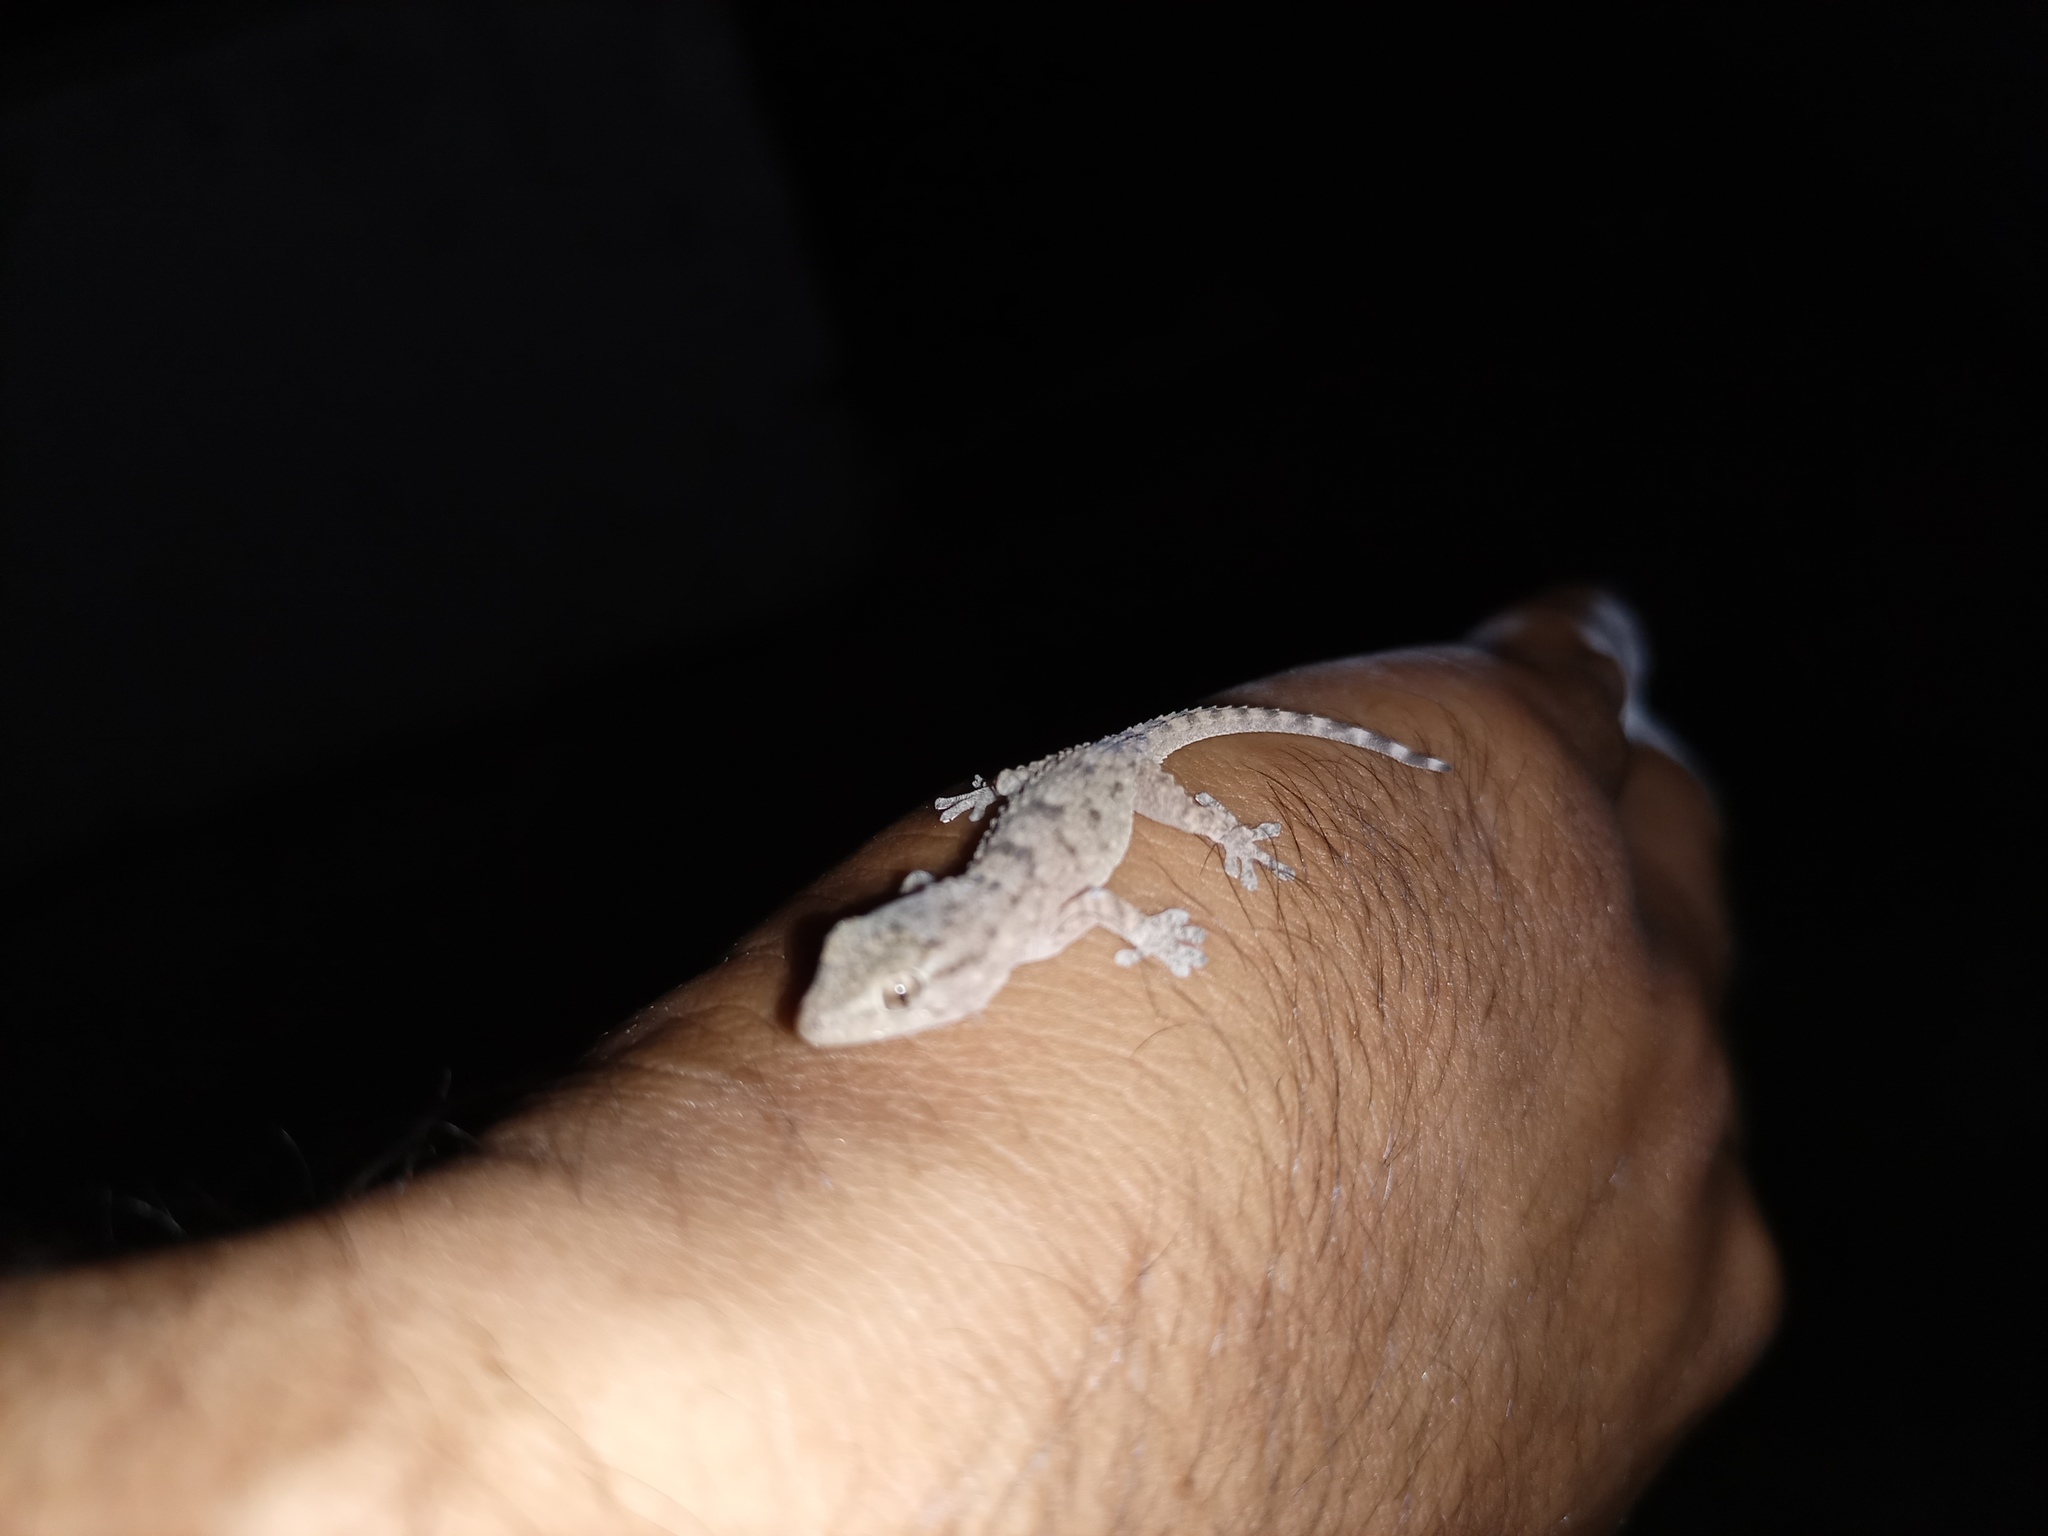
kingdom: Animalia
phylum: Chordata
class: Squamata
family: Phyllodactylidae
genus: Tarentola
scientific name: Tarentola mauritanica
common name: Moorish gecko
